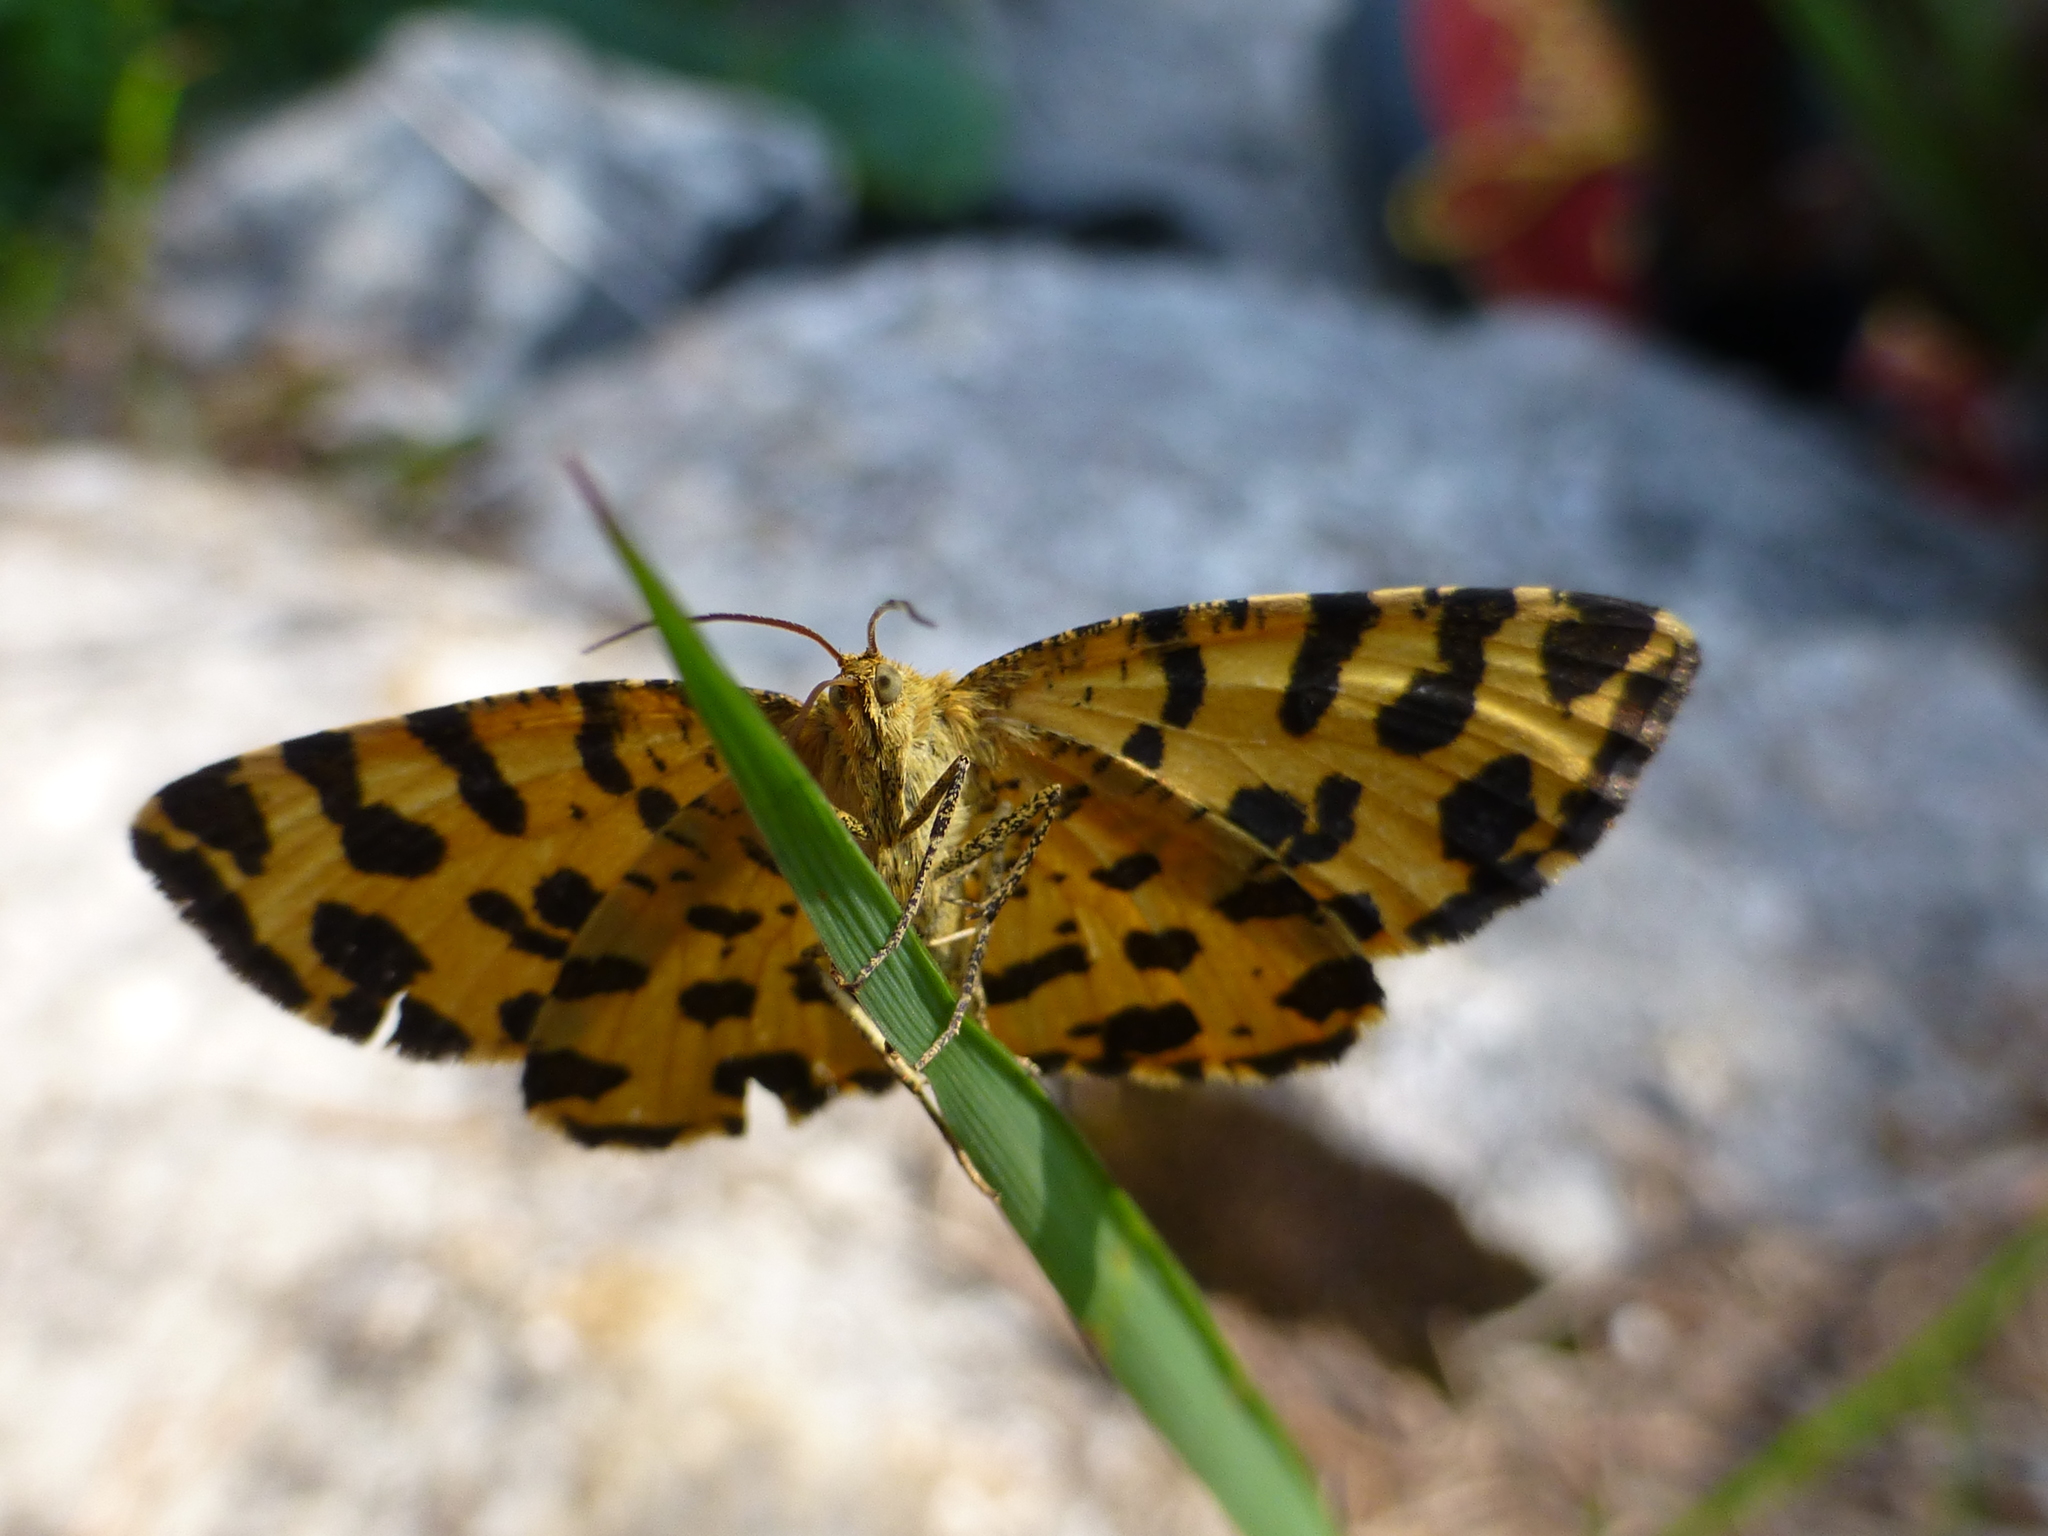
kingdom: Animalia
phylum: Arthropoda
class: Insecta
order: Lepidoptera
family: Geometridae
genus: Pseudopanthera
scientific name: Pseudopanthera macularia
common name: Speckled yellow
